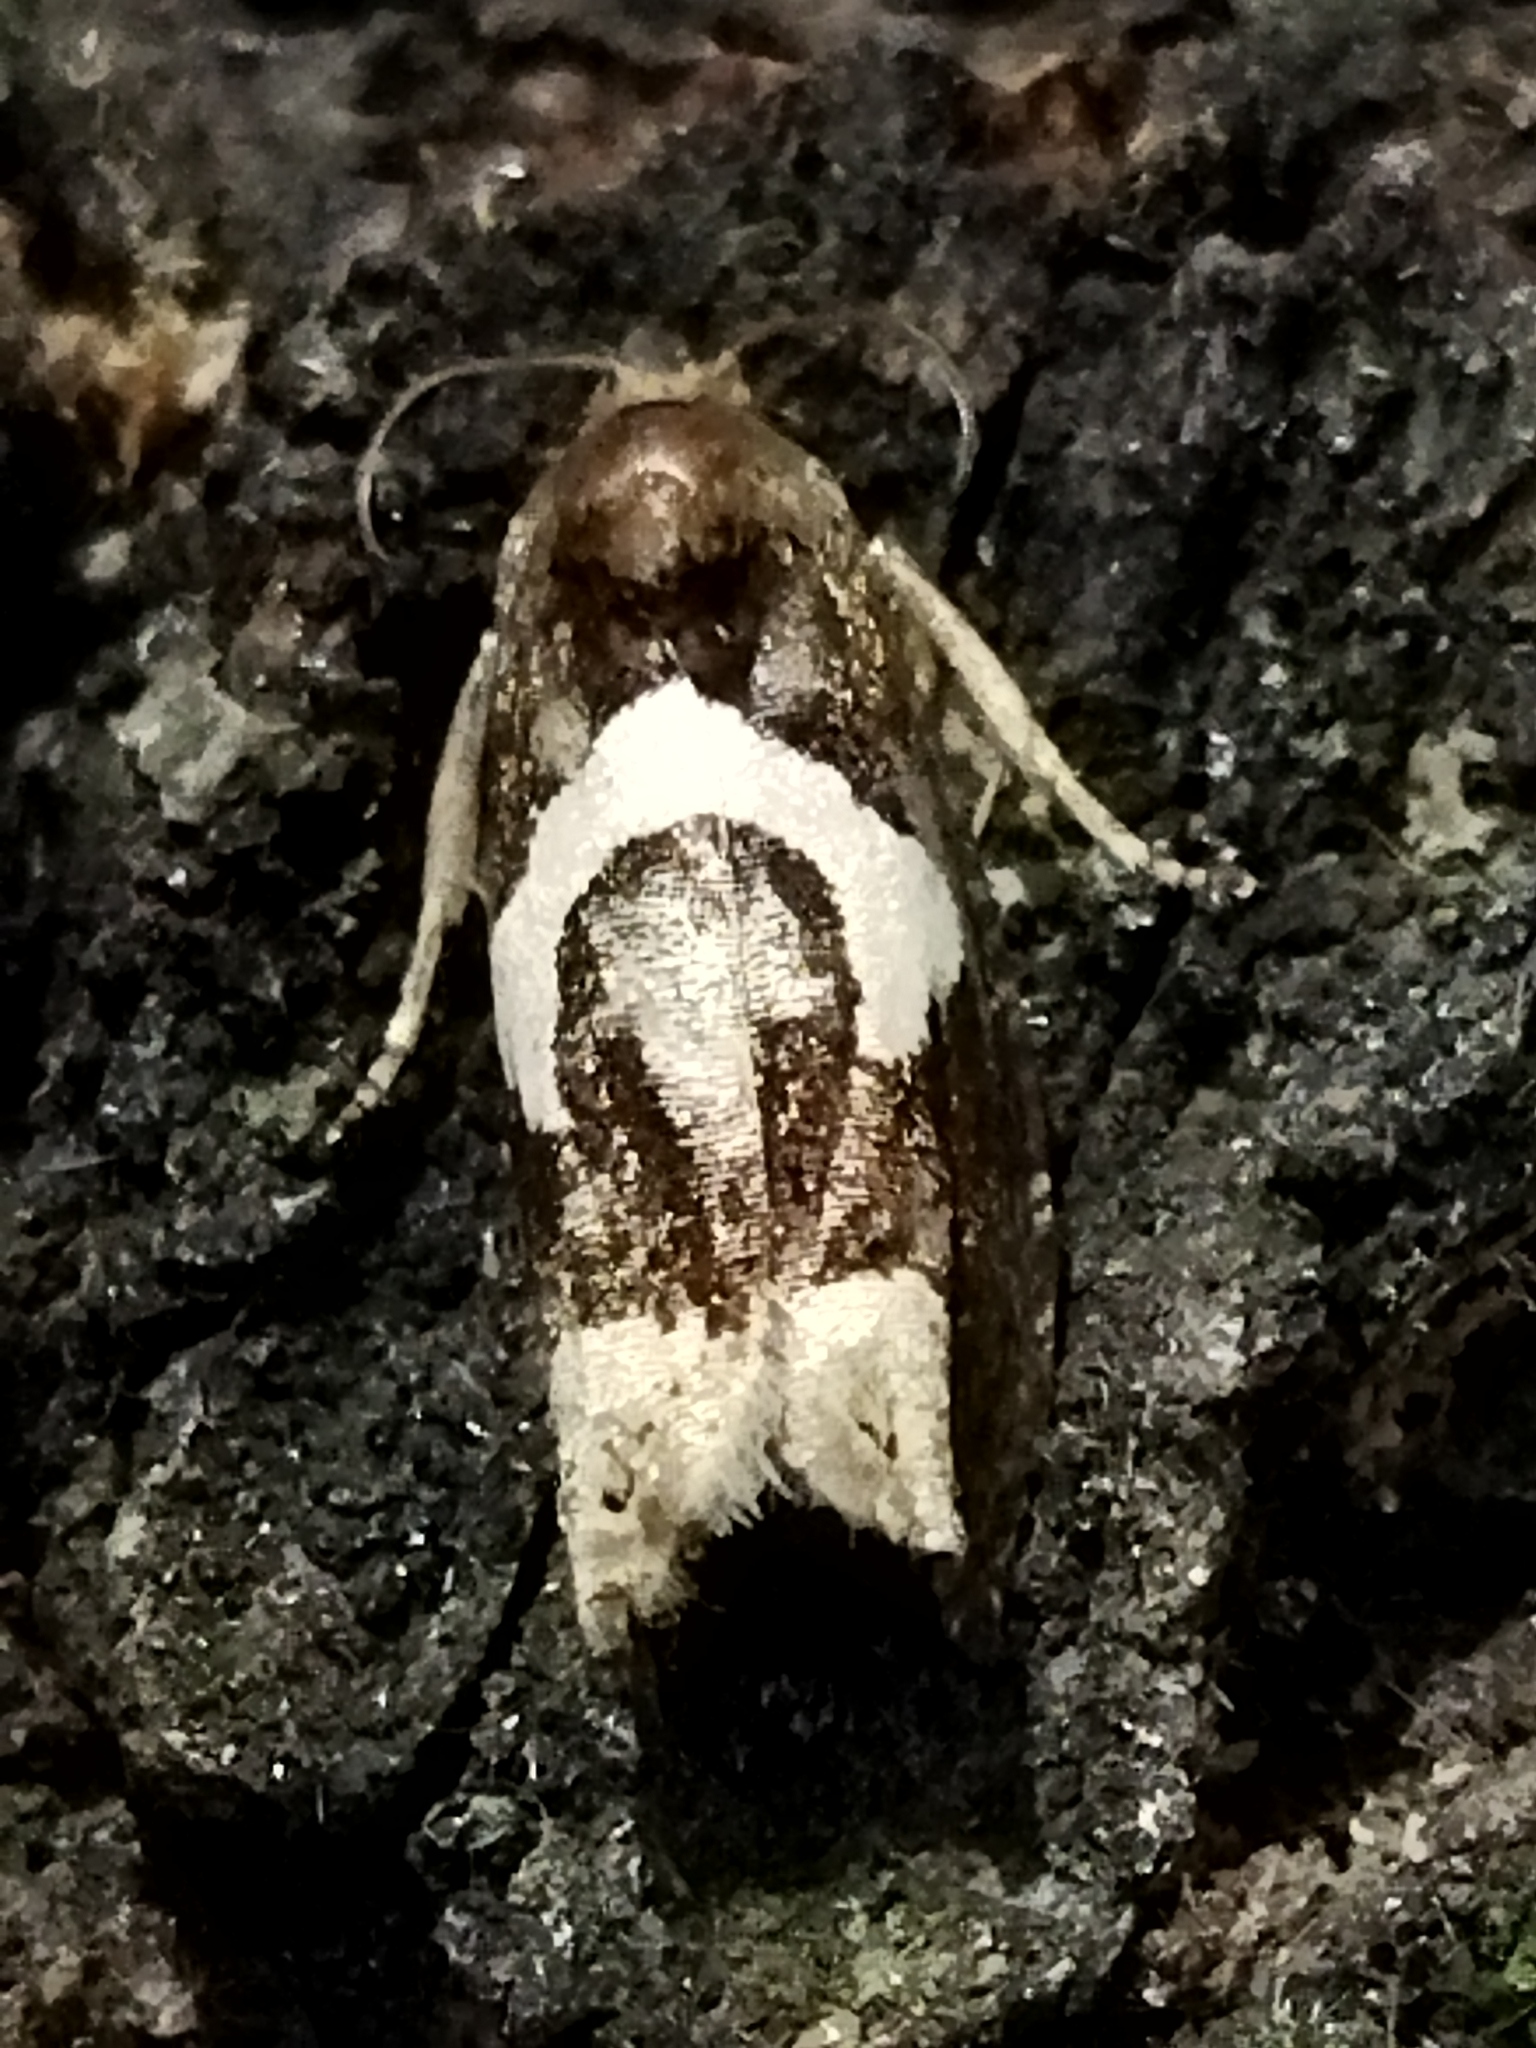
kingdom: Animalia
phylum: Arthropoda
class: Insecta
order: Lepidoptera
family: Tortricidae
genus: Epiblema
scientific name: Epiblema foenella
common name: White-foot bell
